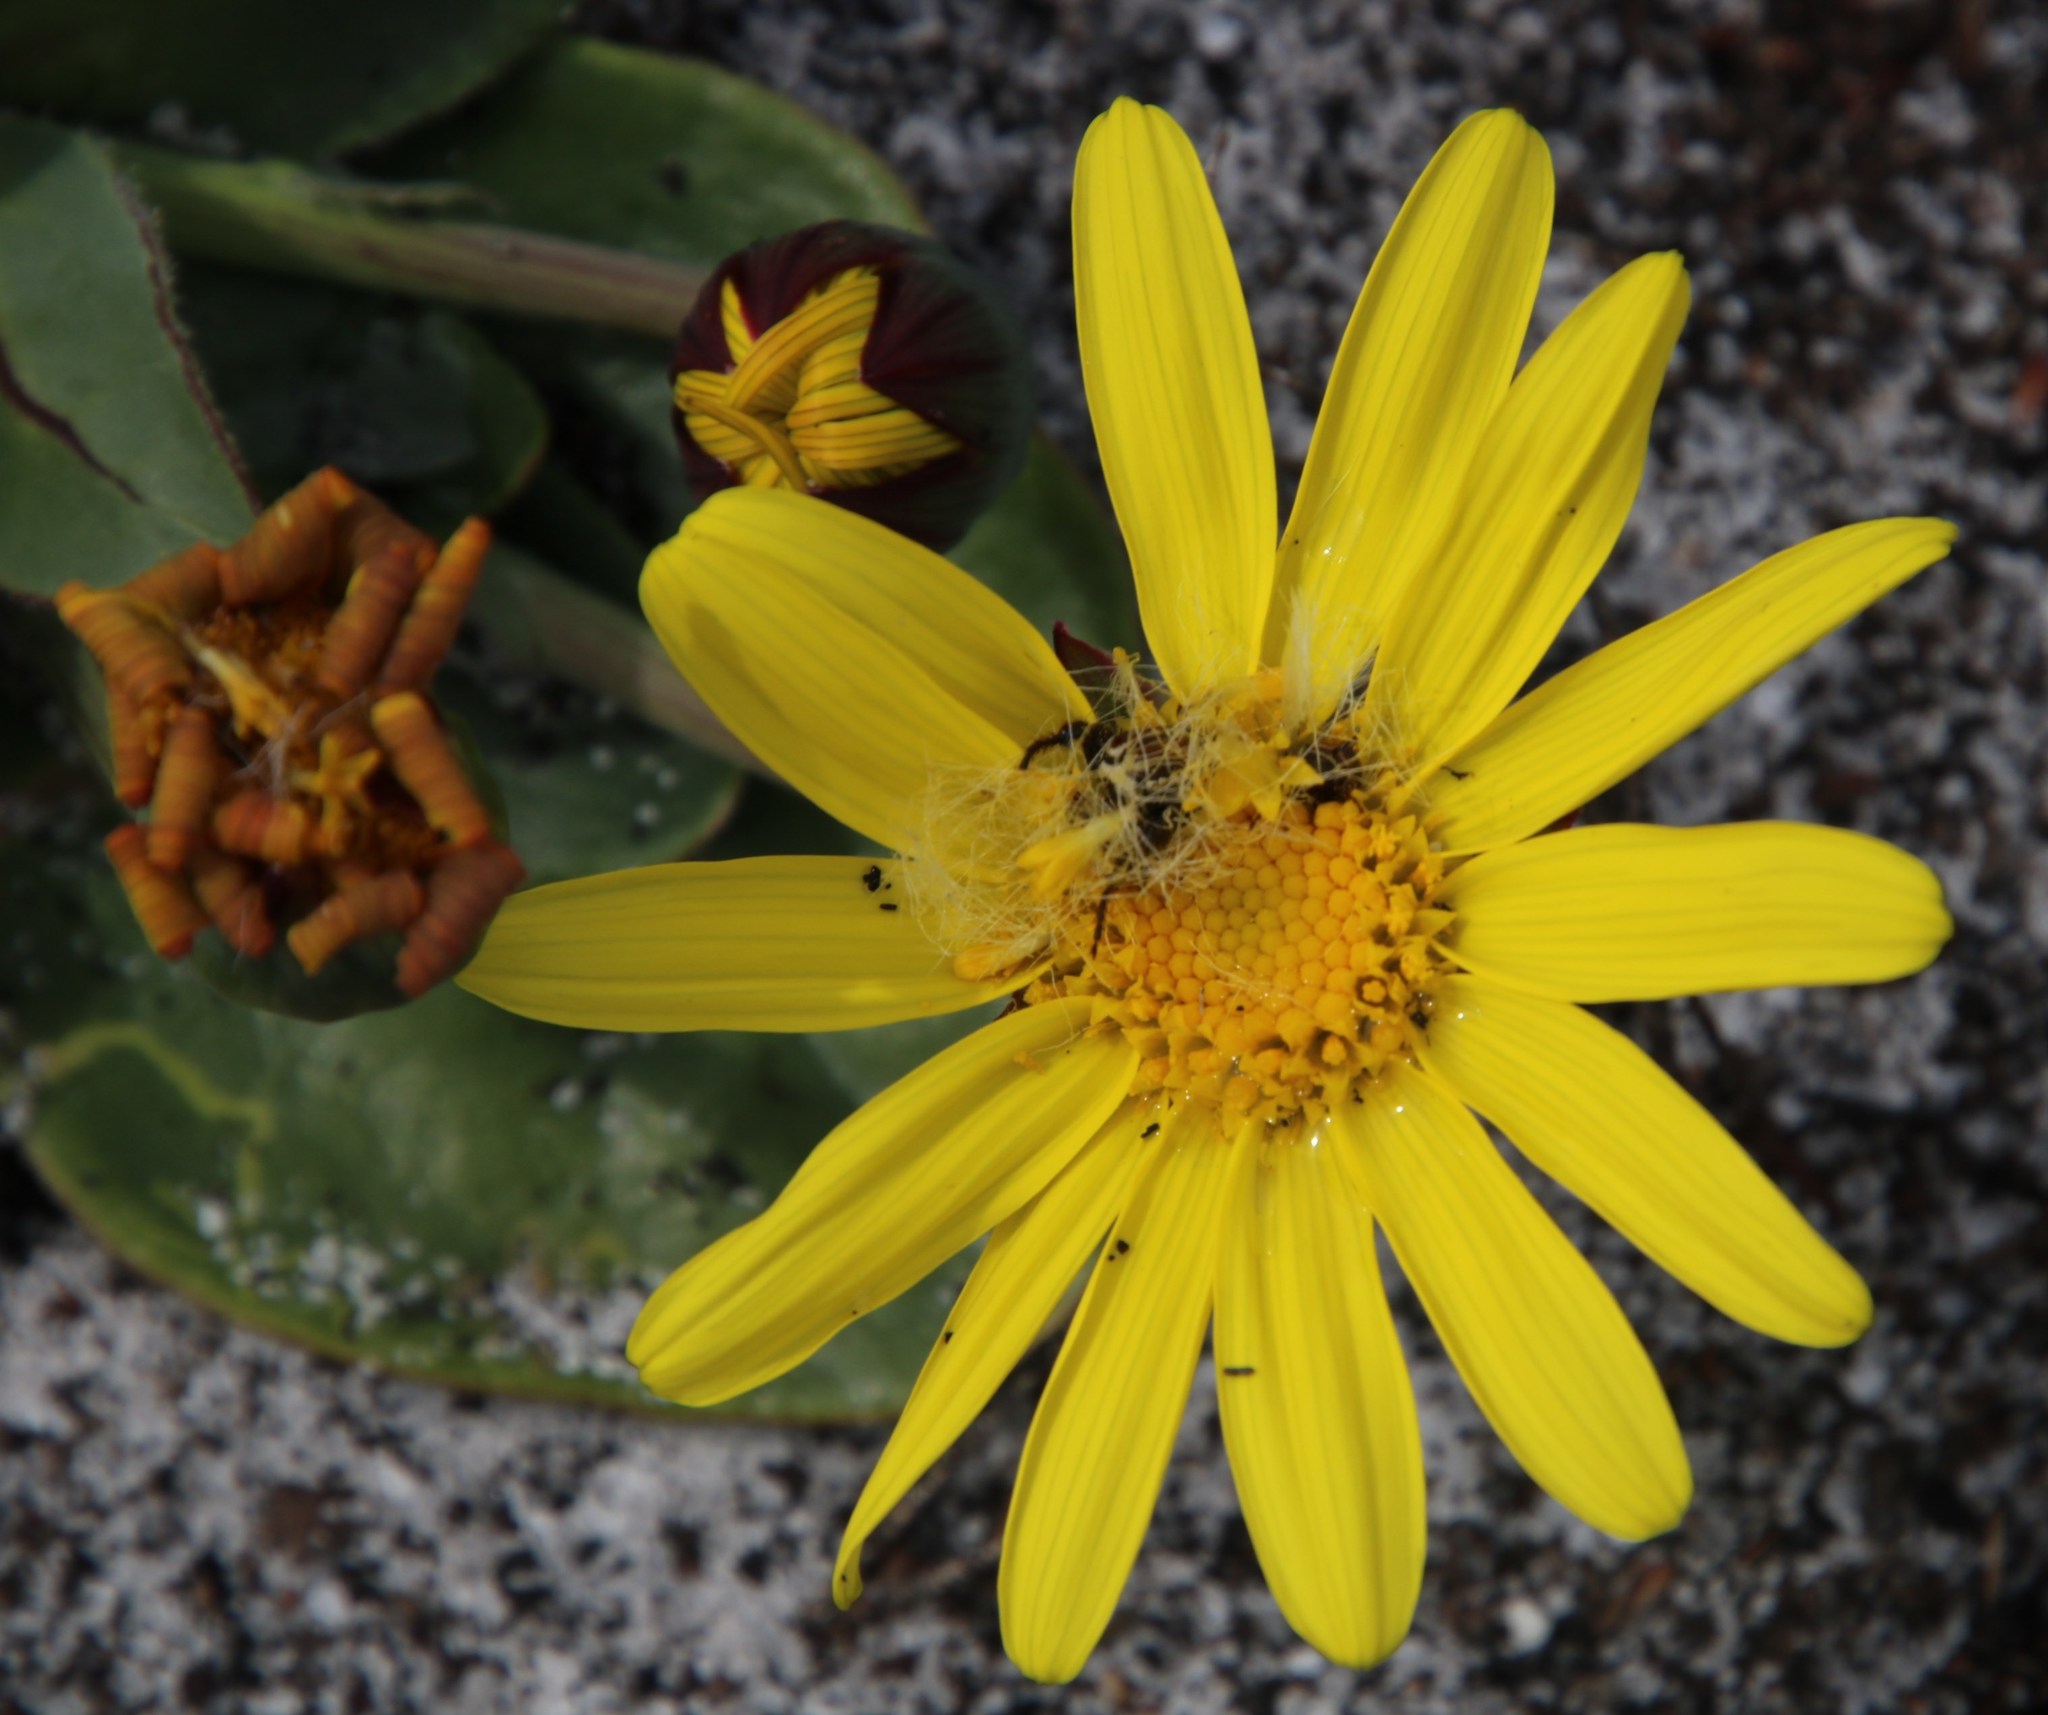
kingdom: Plantae
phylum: Tracheophyta
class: Magnoliopsida
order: Asterales
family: Asteraceae
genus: Othonna
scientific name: Othonna bulbosa
